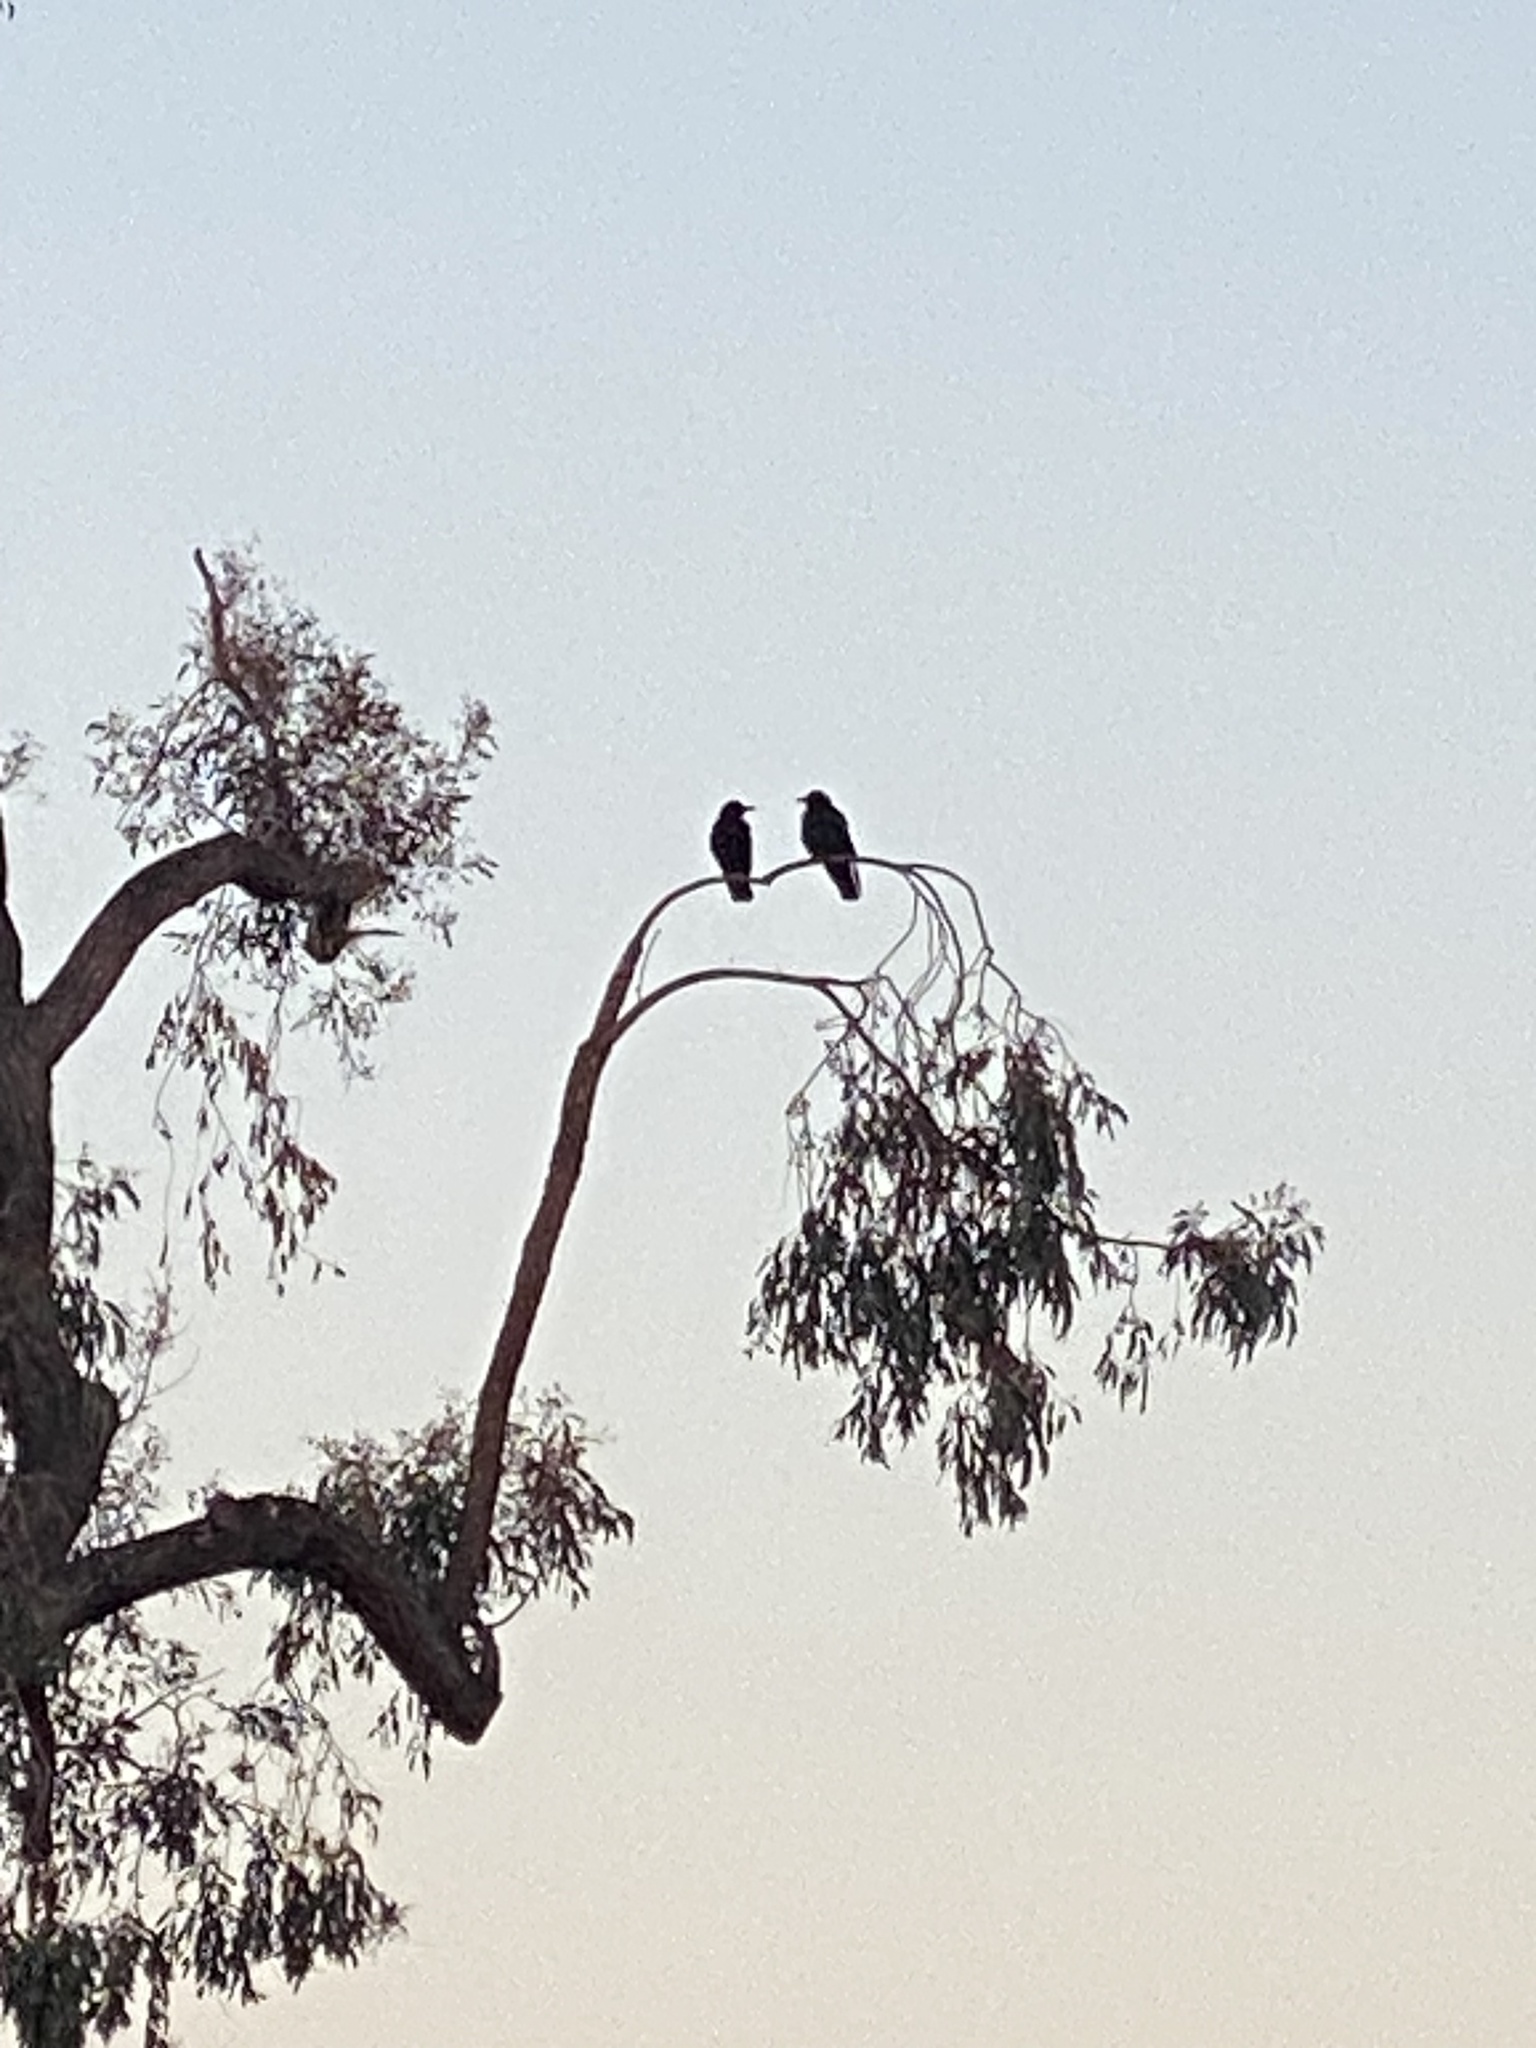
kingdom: Animalia
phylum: Chordata
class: Aves
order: Passeriformes
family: Corvidae
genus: Corvus
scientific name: Corvus brachyrhynchos
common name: American crow
